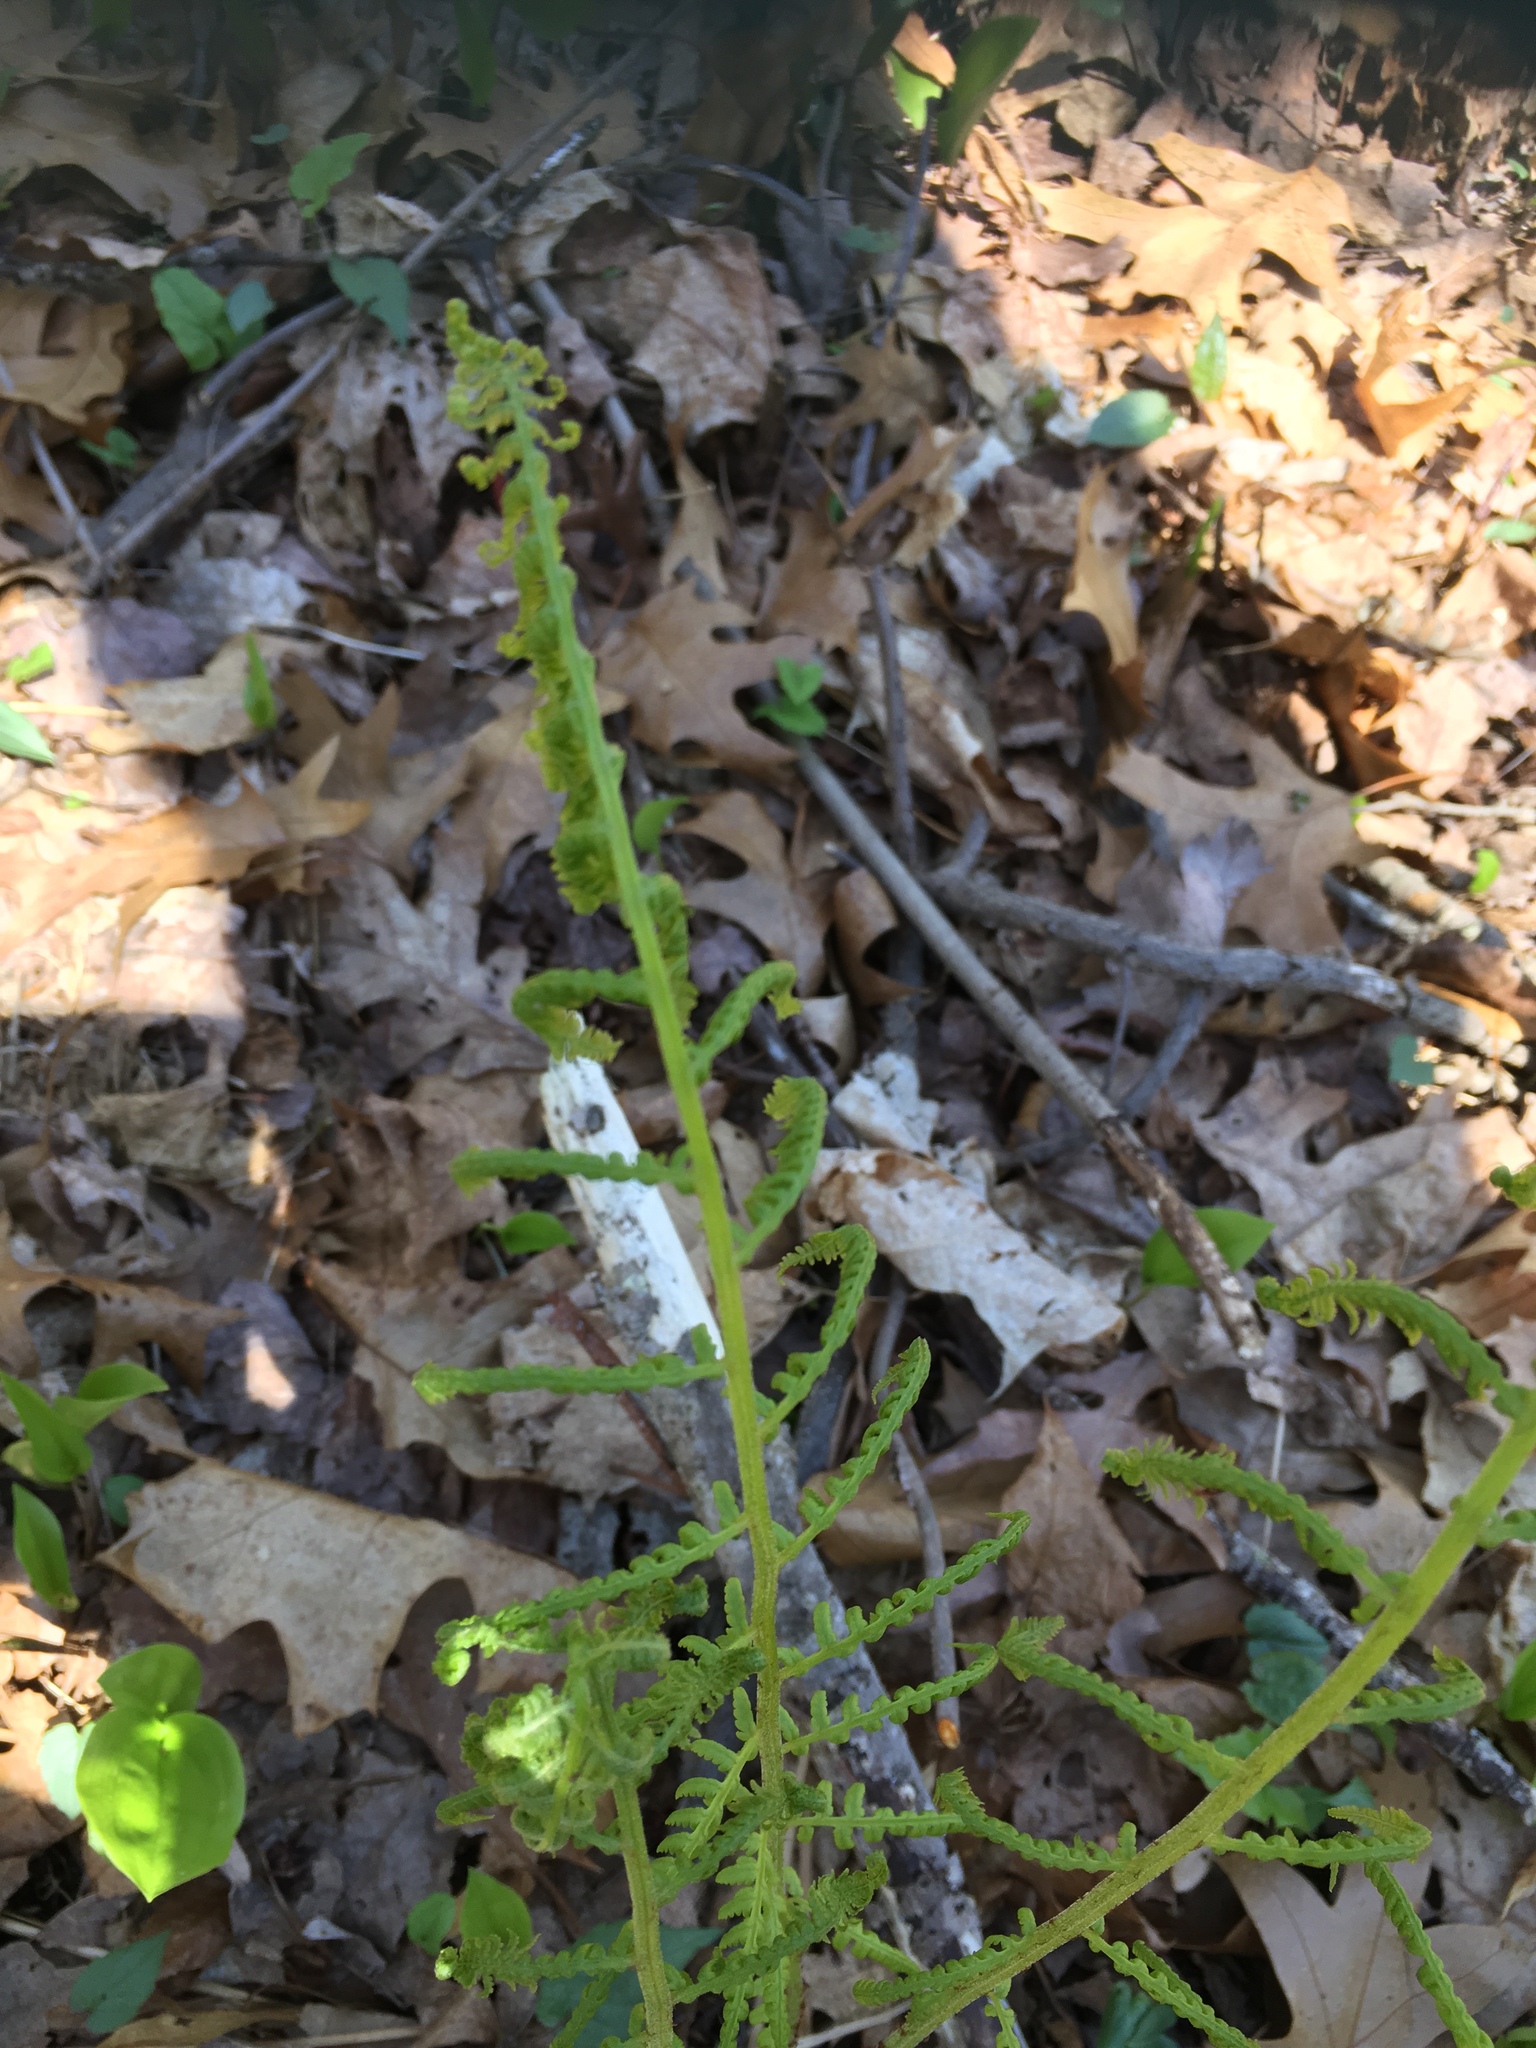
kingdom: Plantae
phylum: Tracheophyta
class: Polypodiopsida
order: Polypodiales
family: Athyriaceae
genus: Athyrium
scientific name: Athyrium angustum
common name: Northern lady fern
